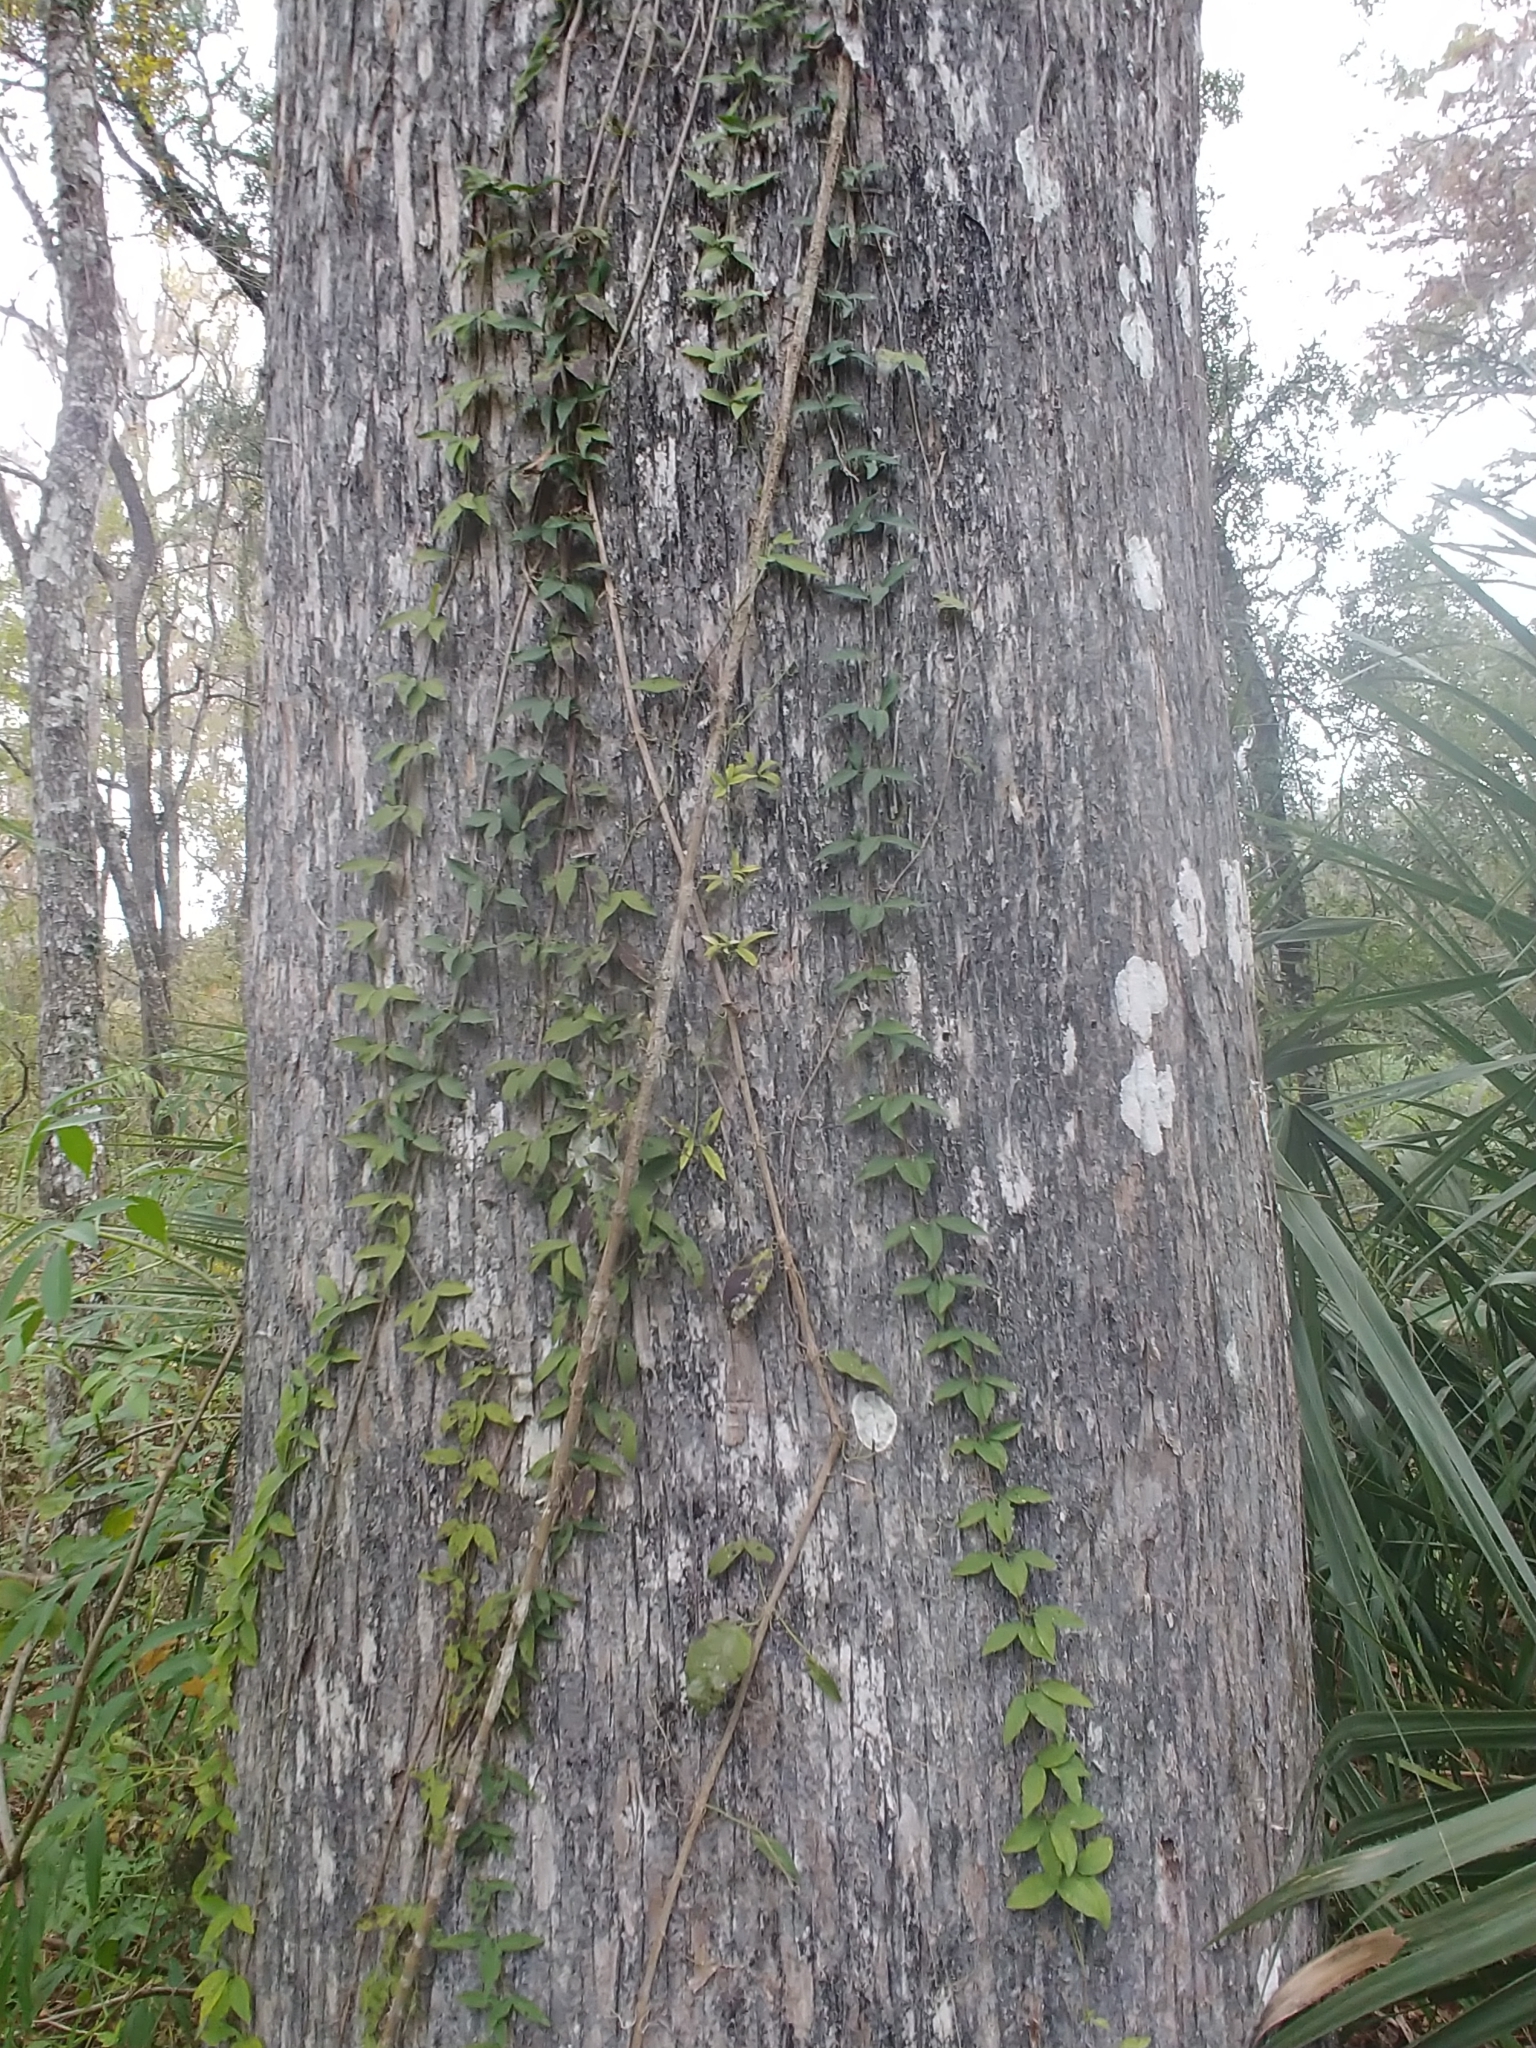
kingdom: Plantae
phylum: Tracheophyta
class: Magnoliopsida
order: Lamiales
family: Bignoniaceae
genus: Dolichandra
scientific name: Dolichandra unguis-cati
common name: Catclaw vine
